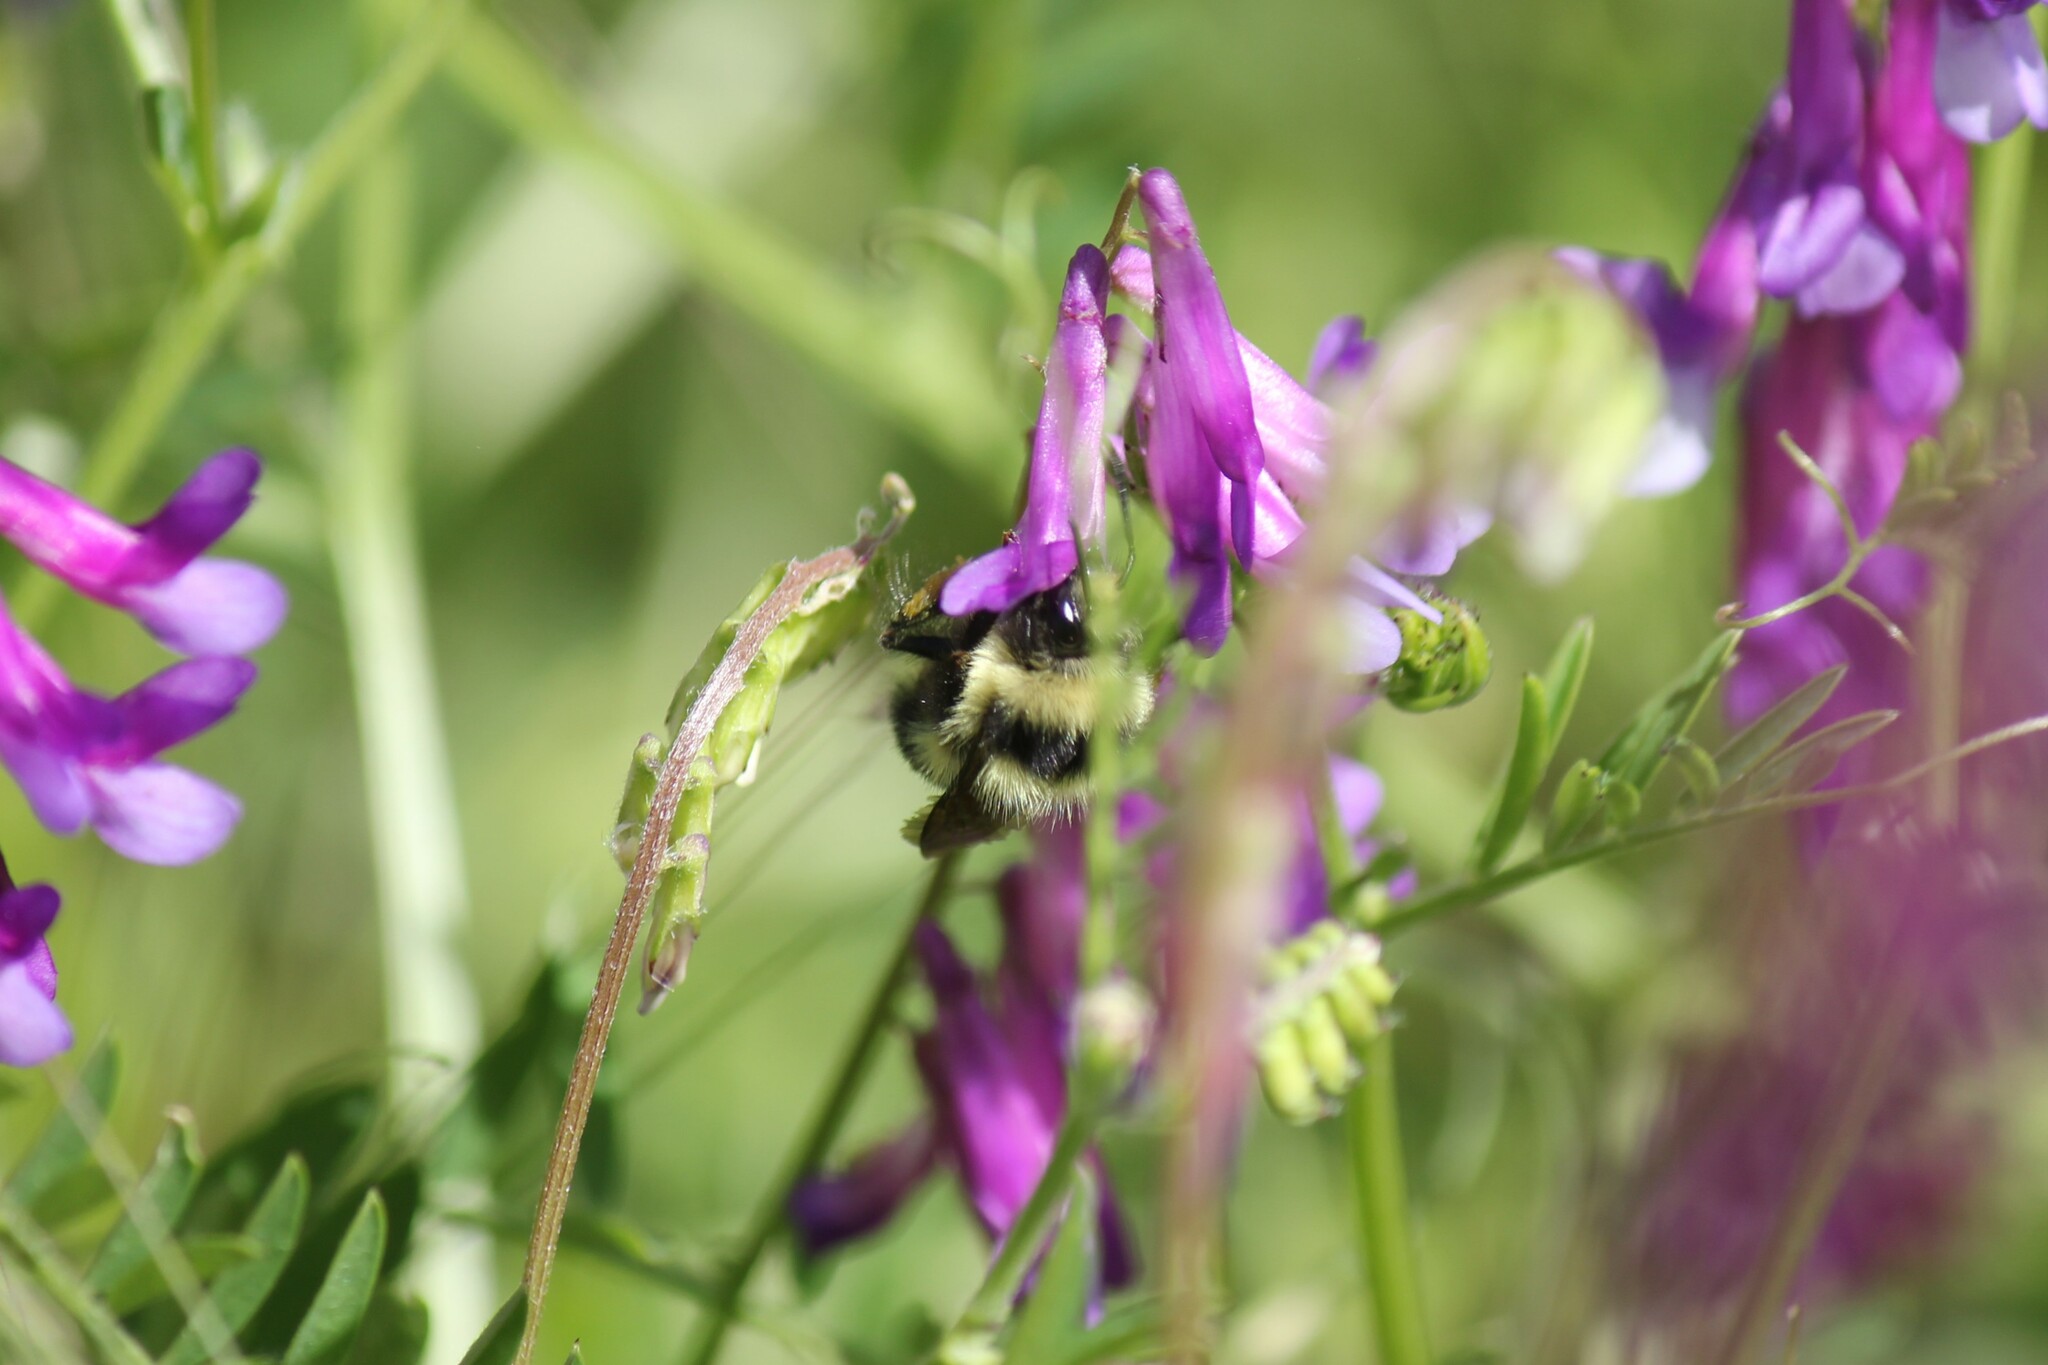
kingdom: Animalia
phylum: Arthropoda
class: Insecta
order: Hymenoptera
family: Apidae
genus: Bombus
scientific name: Bombus melanopygus
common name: Black tail bumble bee
